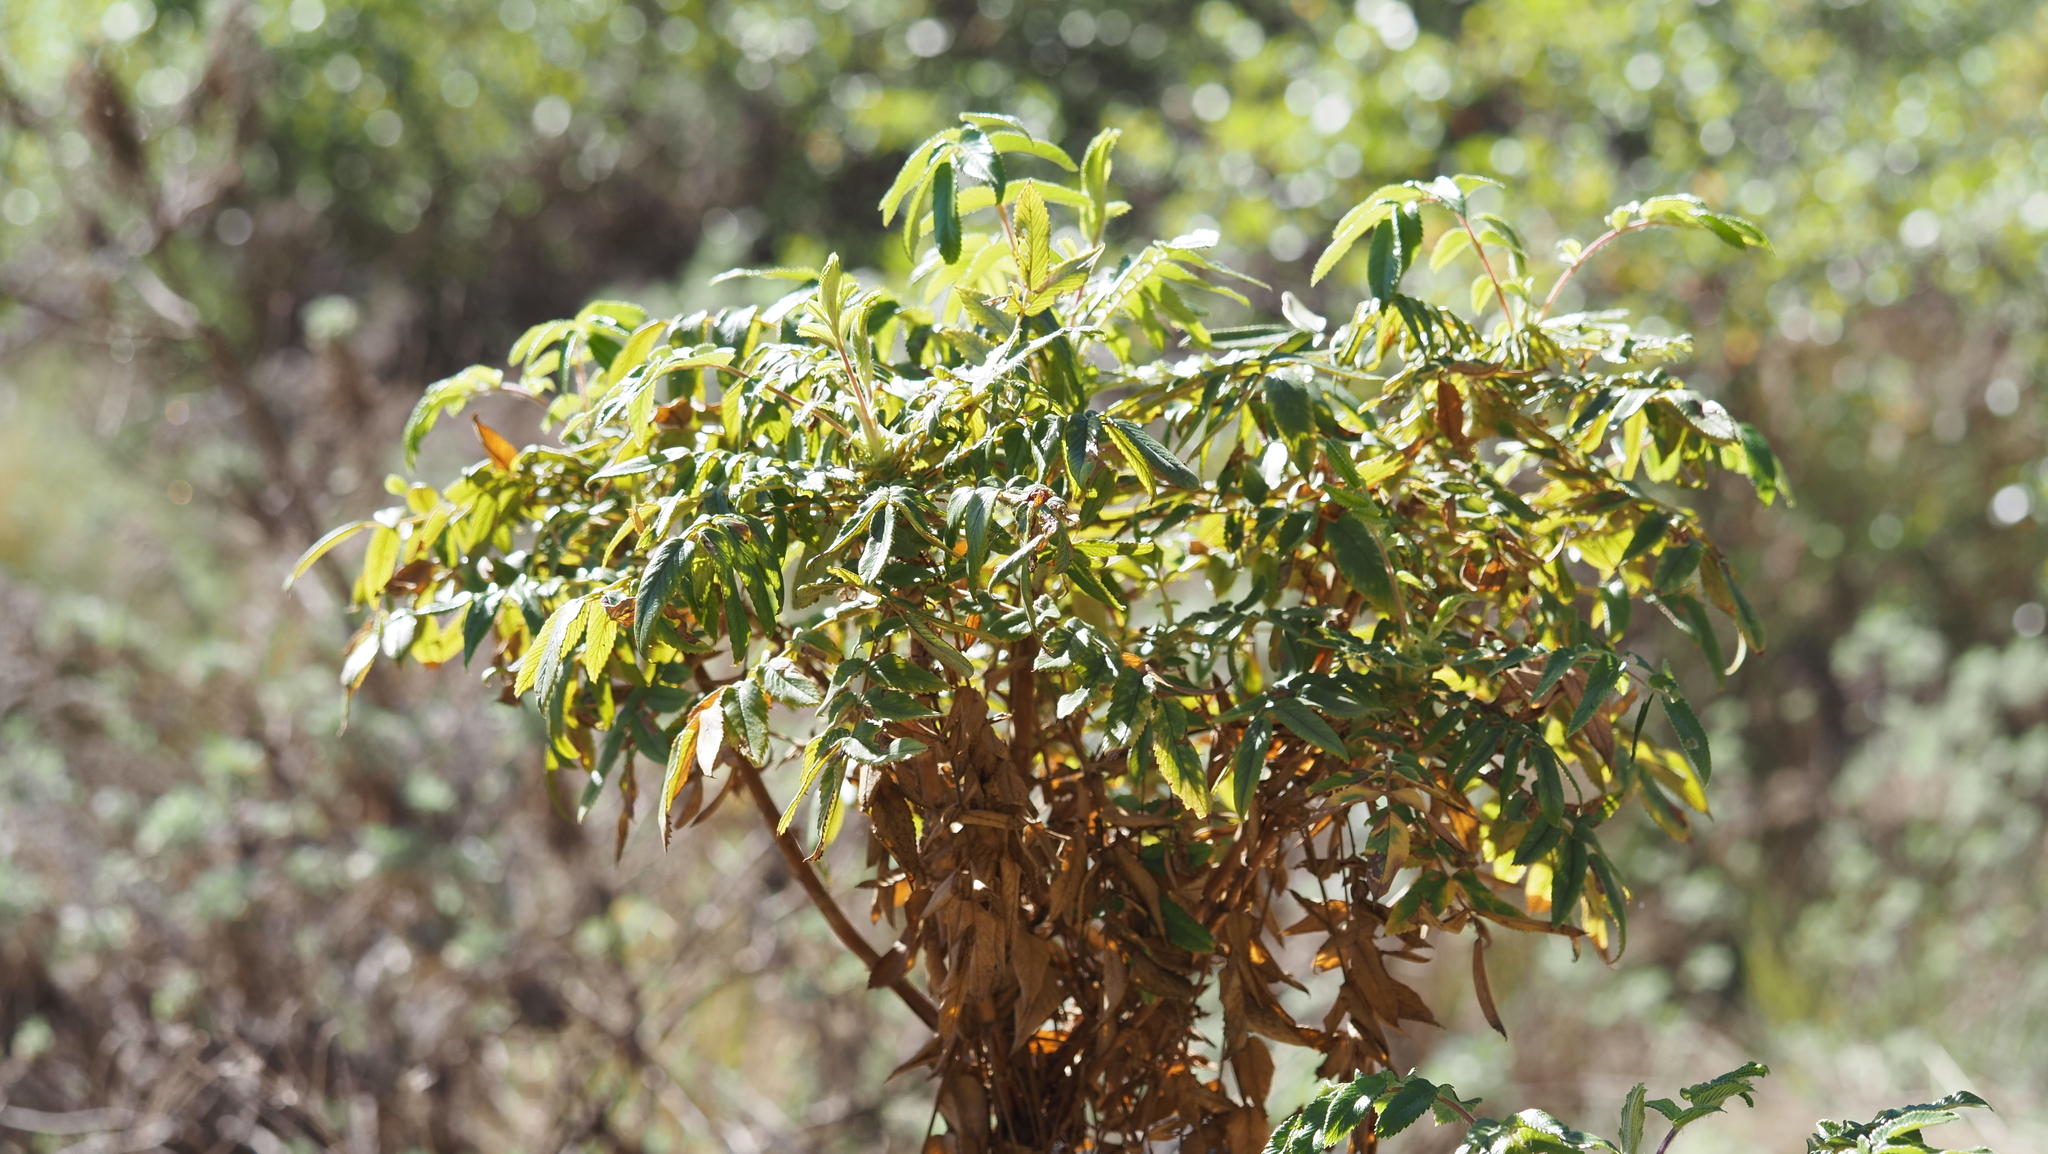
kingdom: Plantae
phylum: Tracheophyta
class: Magnoliopsida
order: Rosales
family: Rosaceae
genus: Bencomia
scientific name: Bencomia caudata
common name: Bencomia
